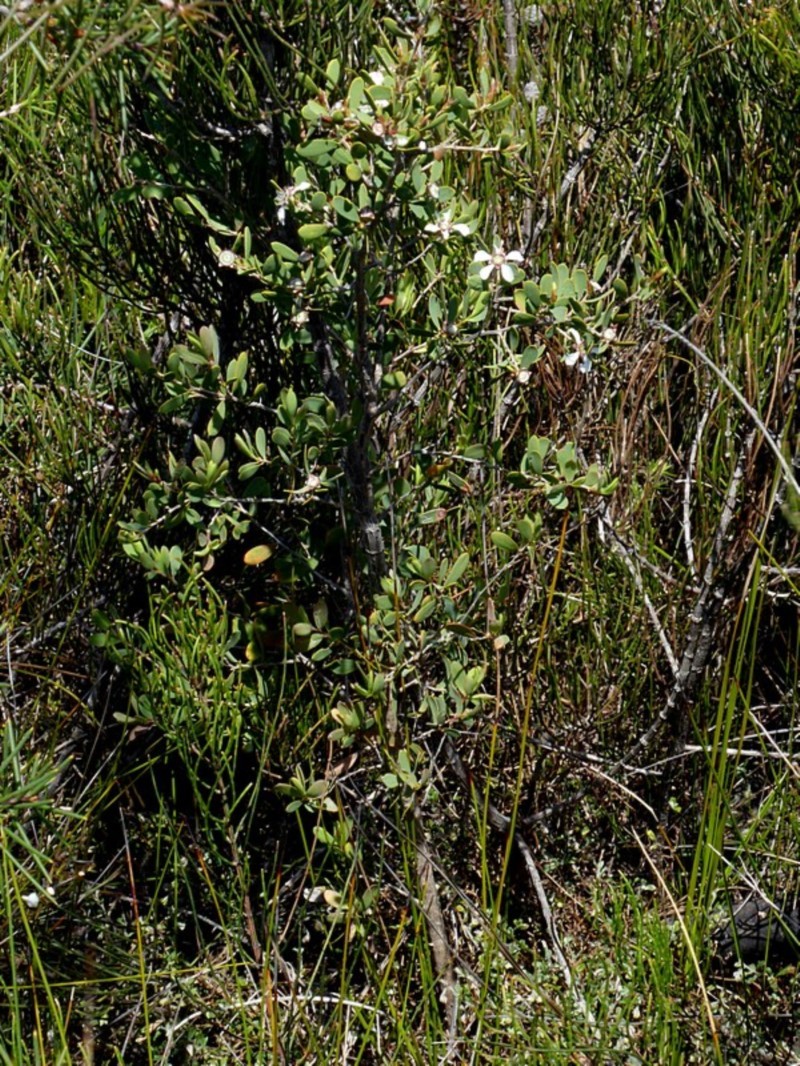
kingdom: Plantae
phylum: Tracheophyta
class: Magnoliopsida
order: Myrtales
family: Myrtaceae
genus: Leptospermum
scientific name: Leptospermum laevigatum
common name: Australian teatree
